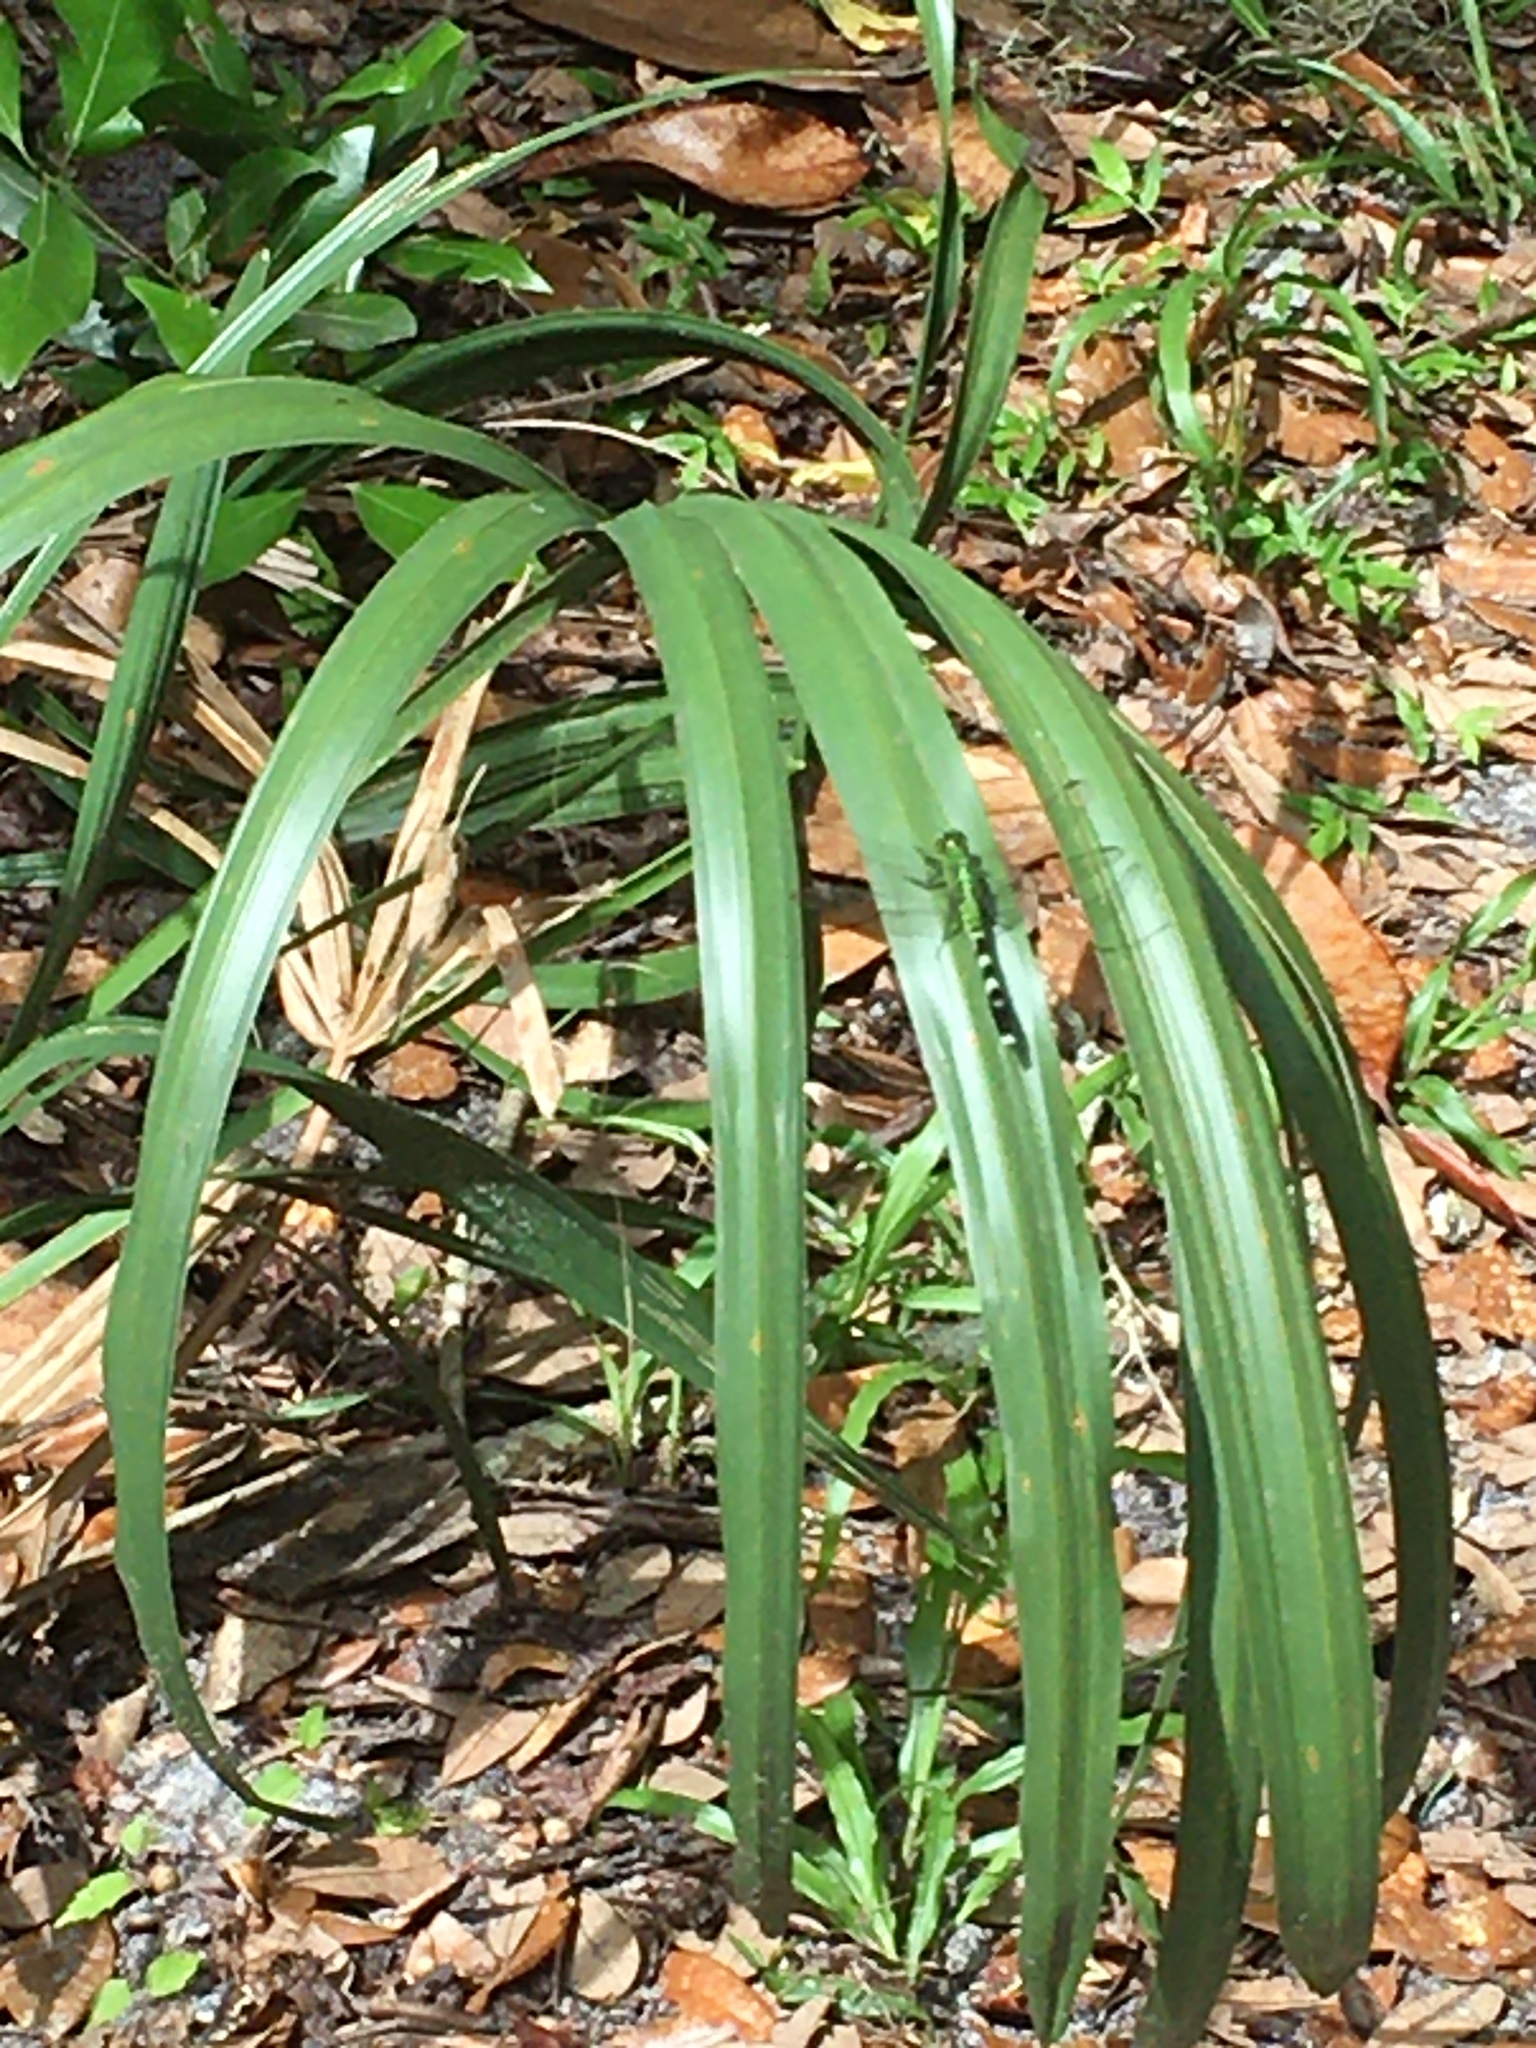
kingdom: Animalia
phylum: Arthropoda
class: Insecta
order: Odonata
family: Libellulidae
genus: Erythemis
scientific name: Erythemis simplicicollis
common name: Eastern pondhawk
